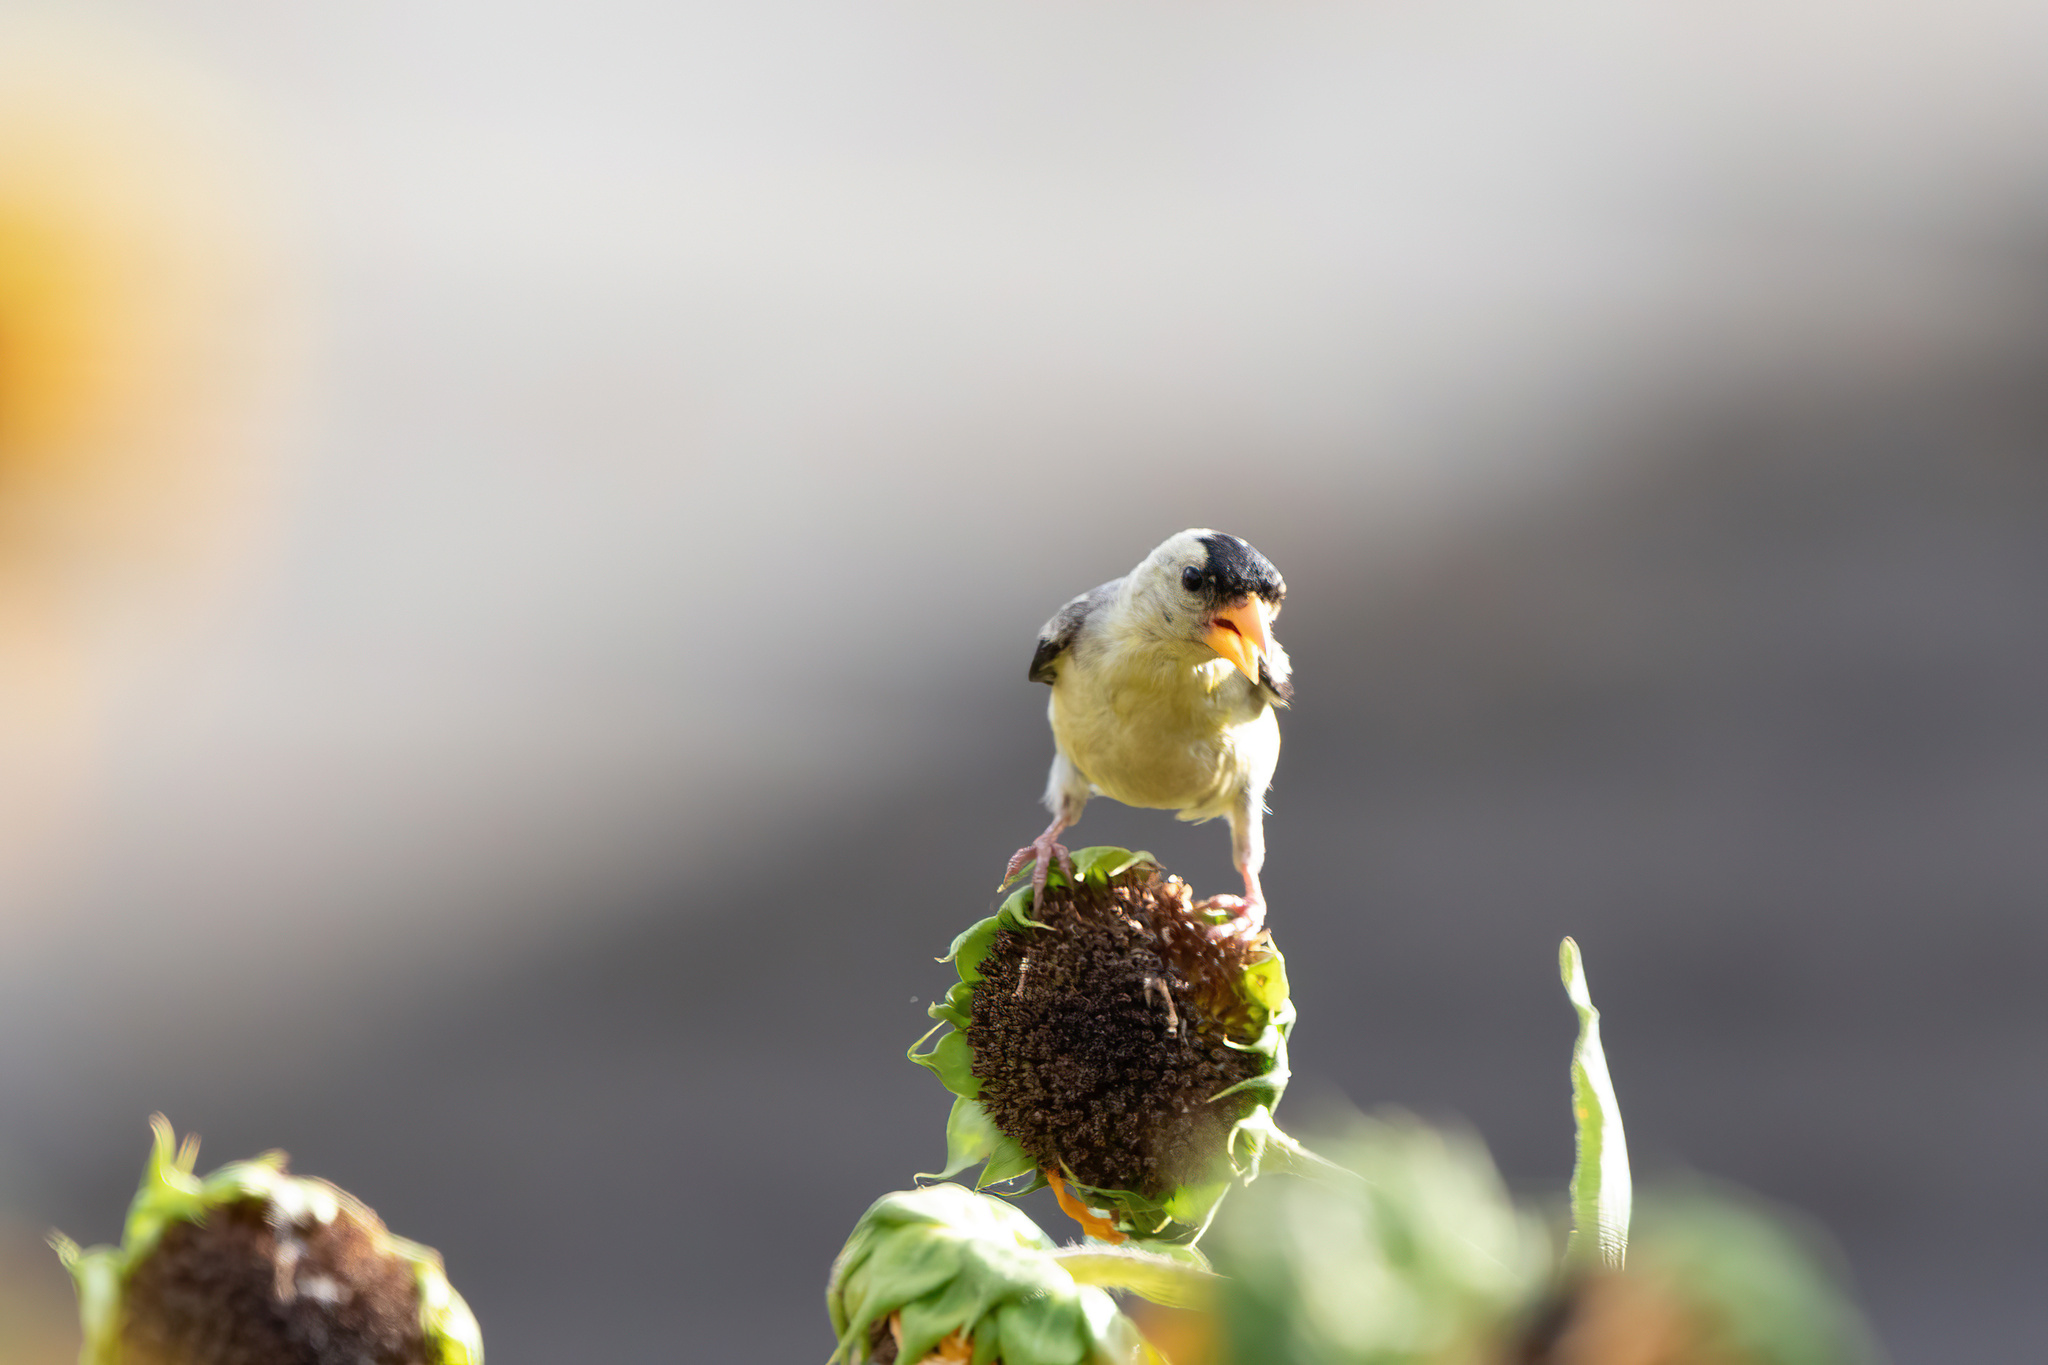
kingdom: Animalia
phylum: Chordata
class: Aves
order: Passeriformes
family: Fringillidae
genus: Spinus
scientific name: Spinus tristis
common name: American goldfinch
